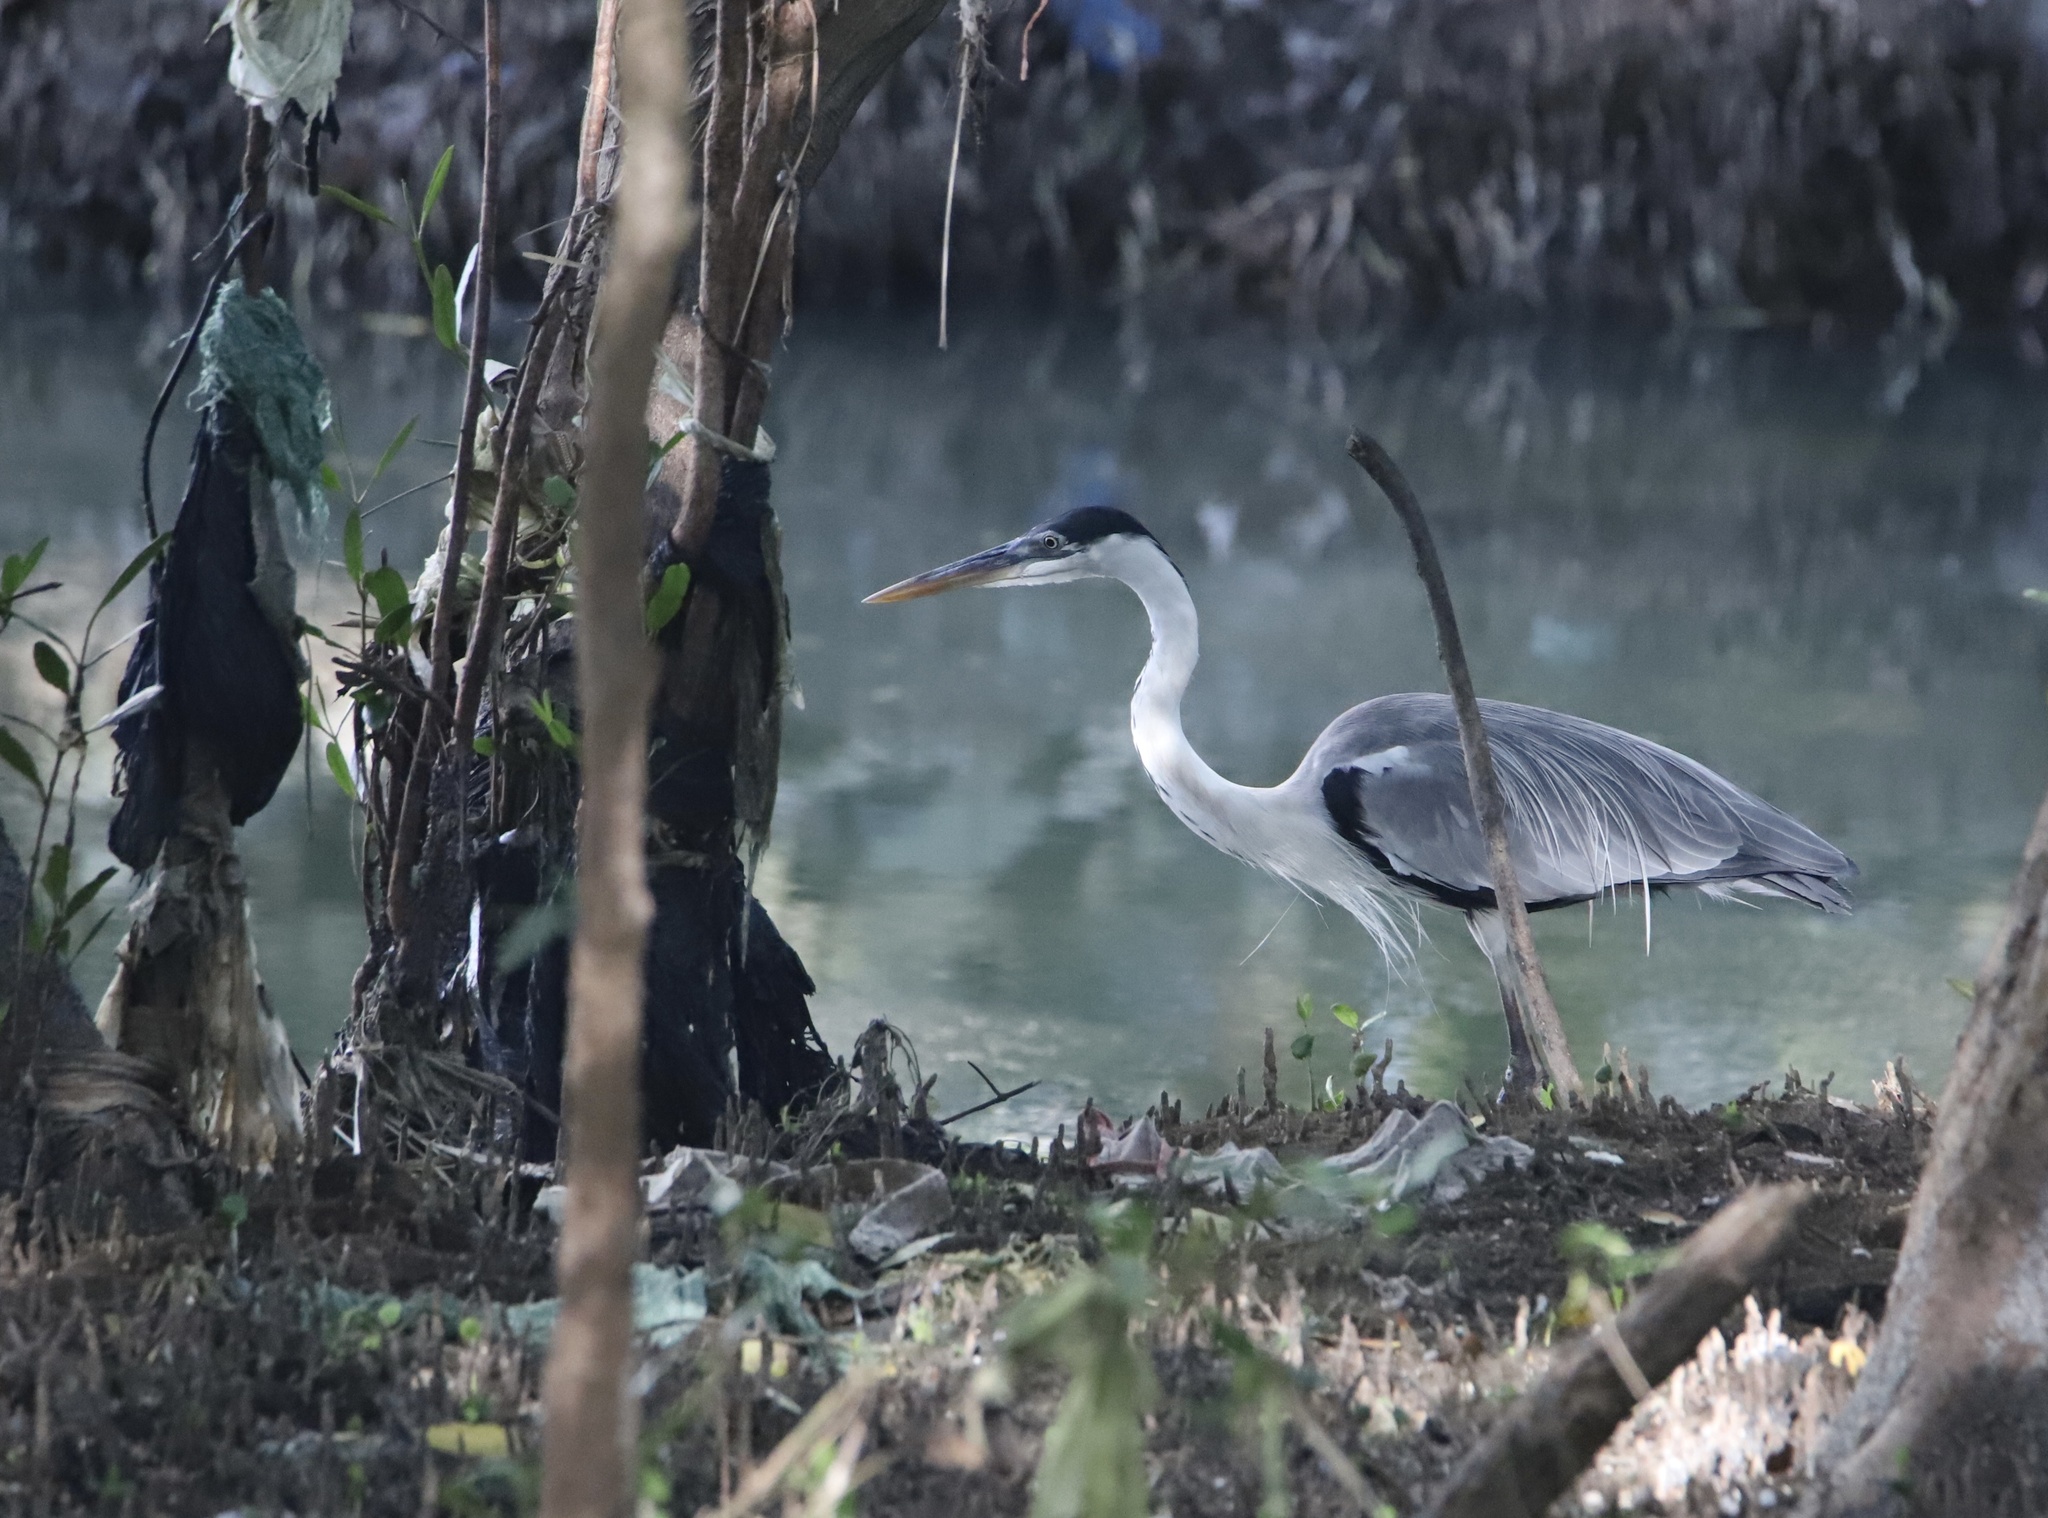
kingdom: Animalia
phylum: Chordata
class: Aves
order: Pelecaniformes
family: Ardeidae
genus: Ardea
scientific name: Ardea cocoi
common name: Cocoi heron
